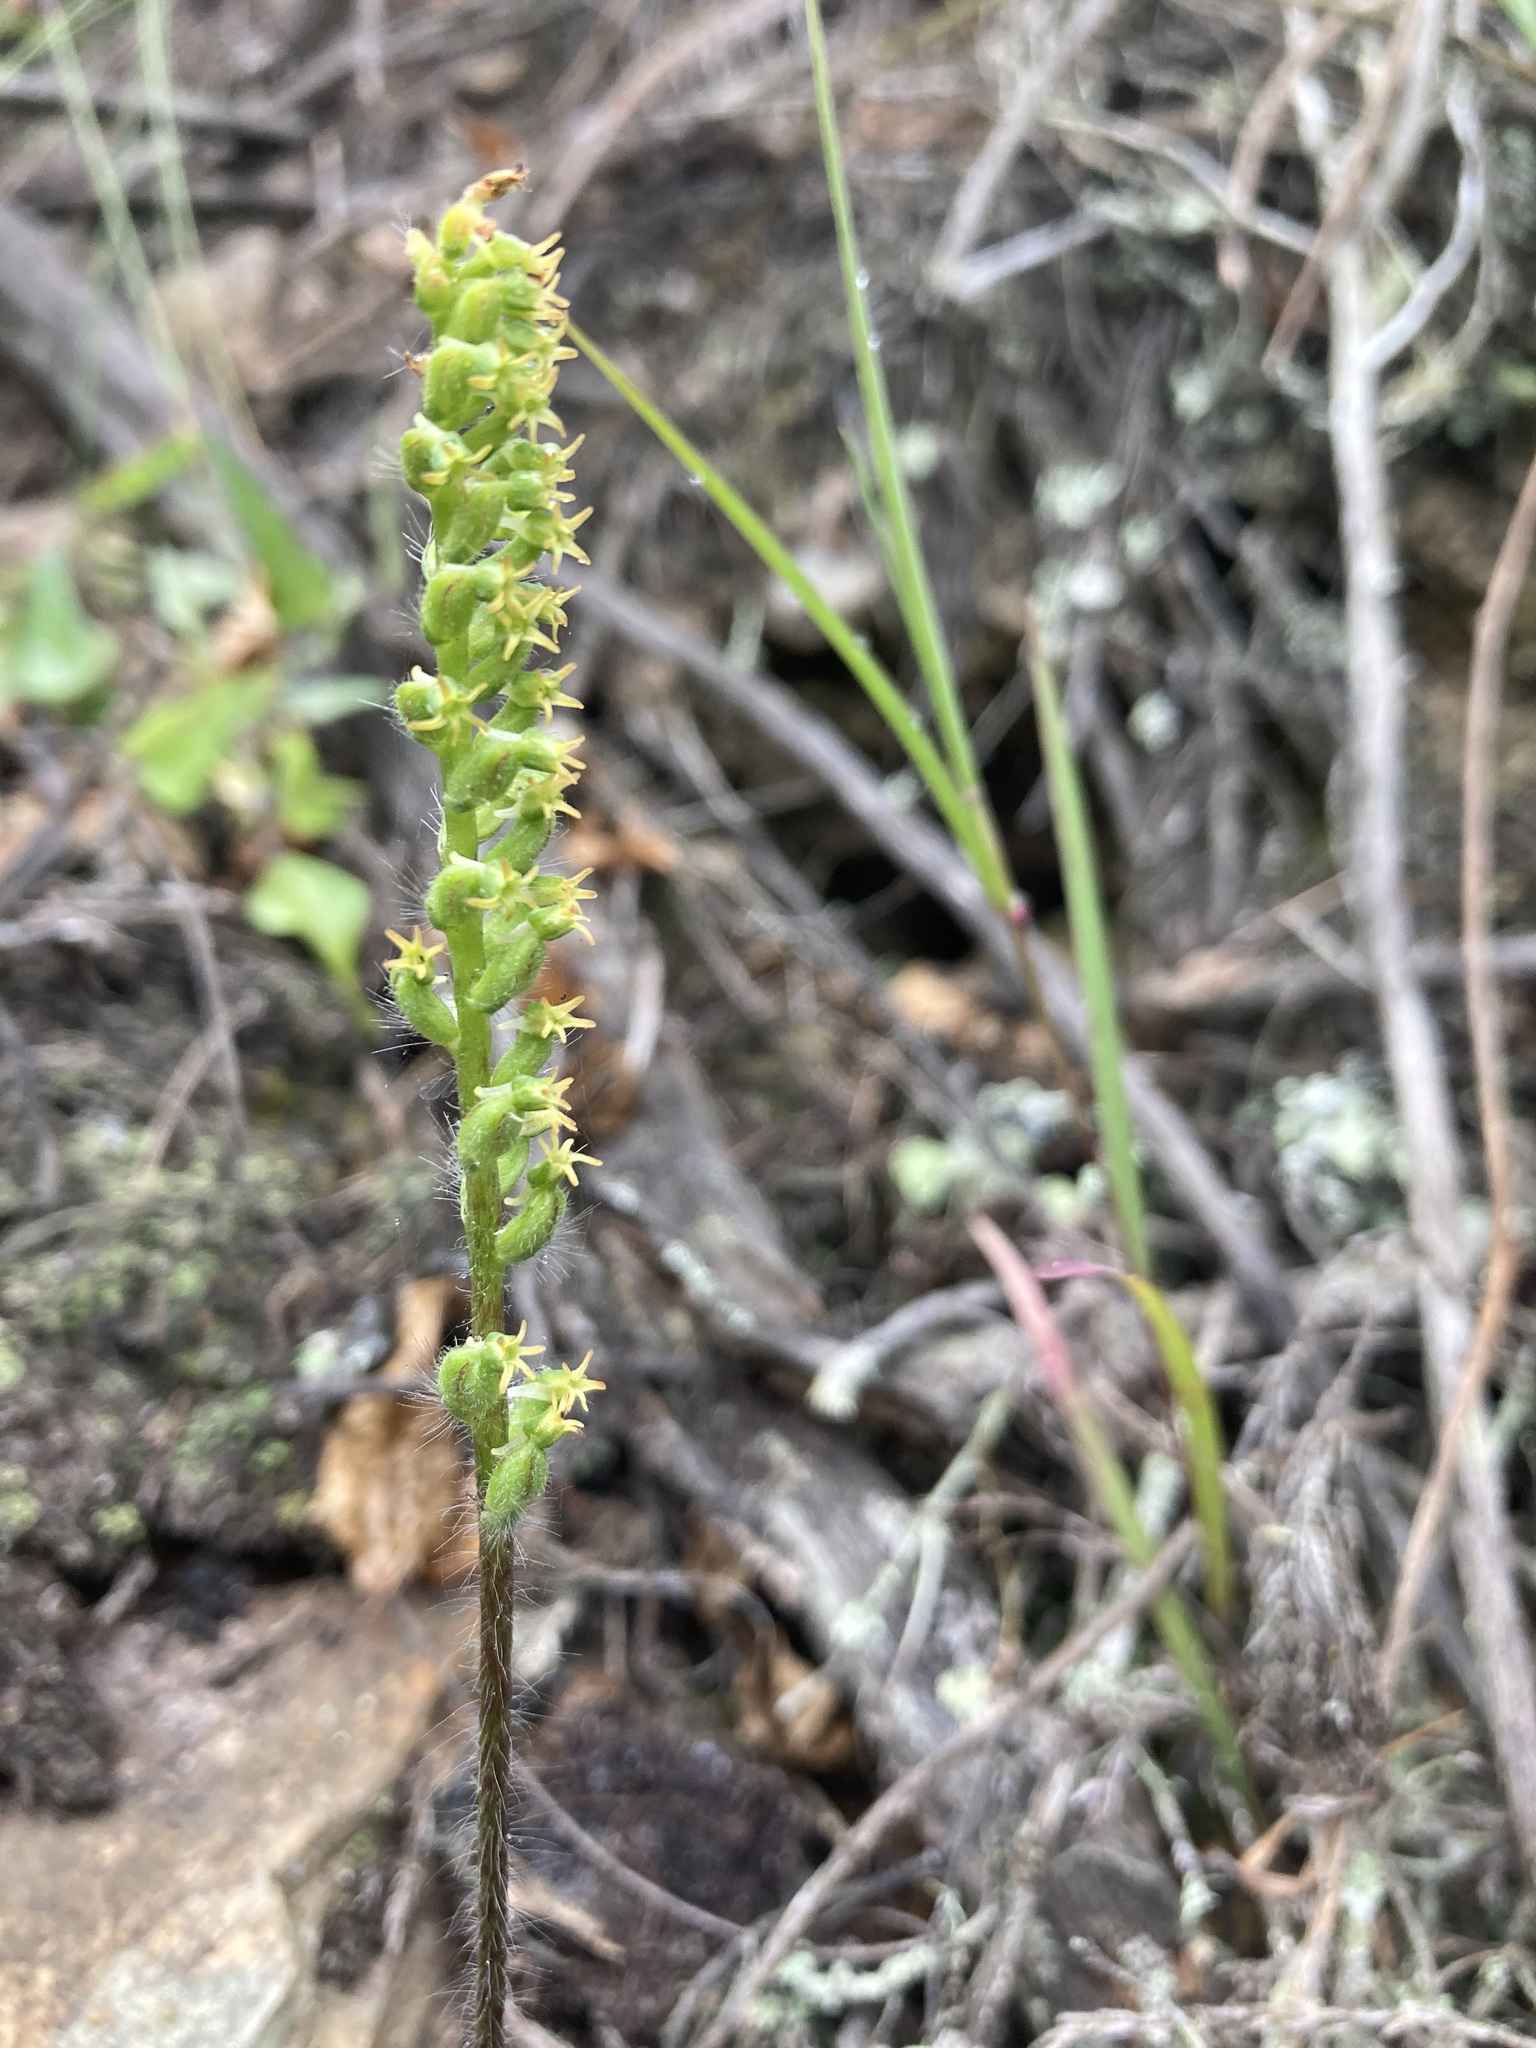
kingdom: Plantae
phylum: Tracheophyta
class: Liliopsida
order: Asparagales
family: Orchidaceae
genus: Holothrix
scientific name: Holothrix villosa
